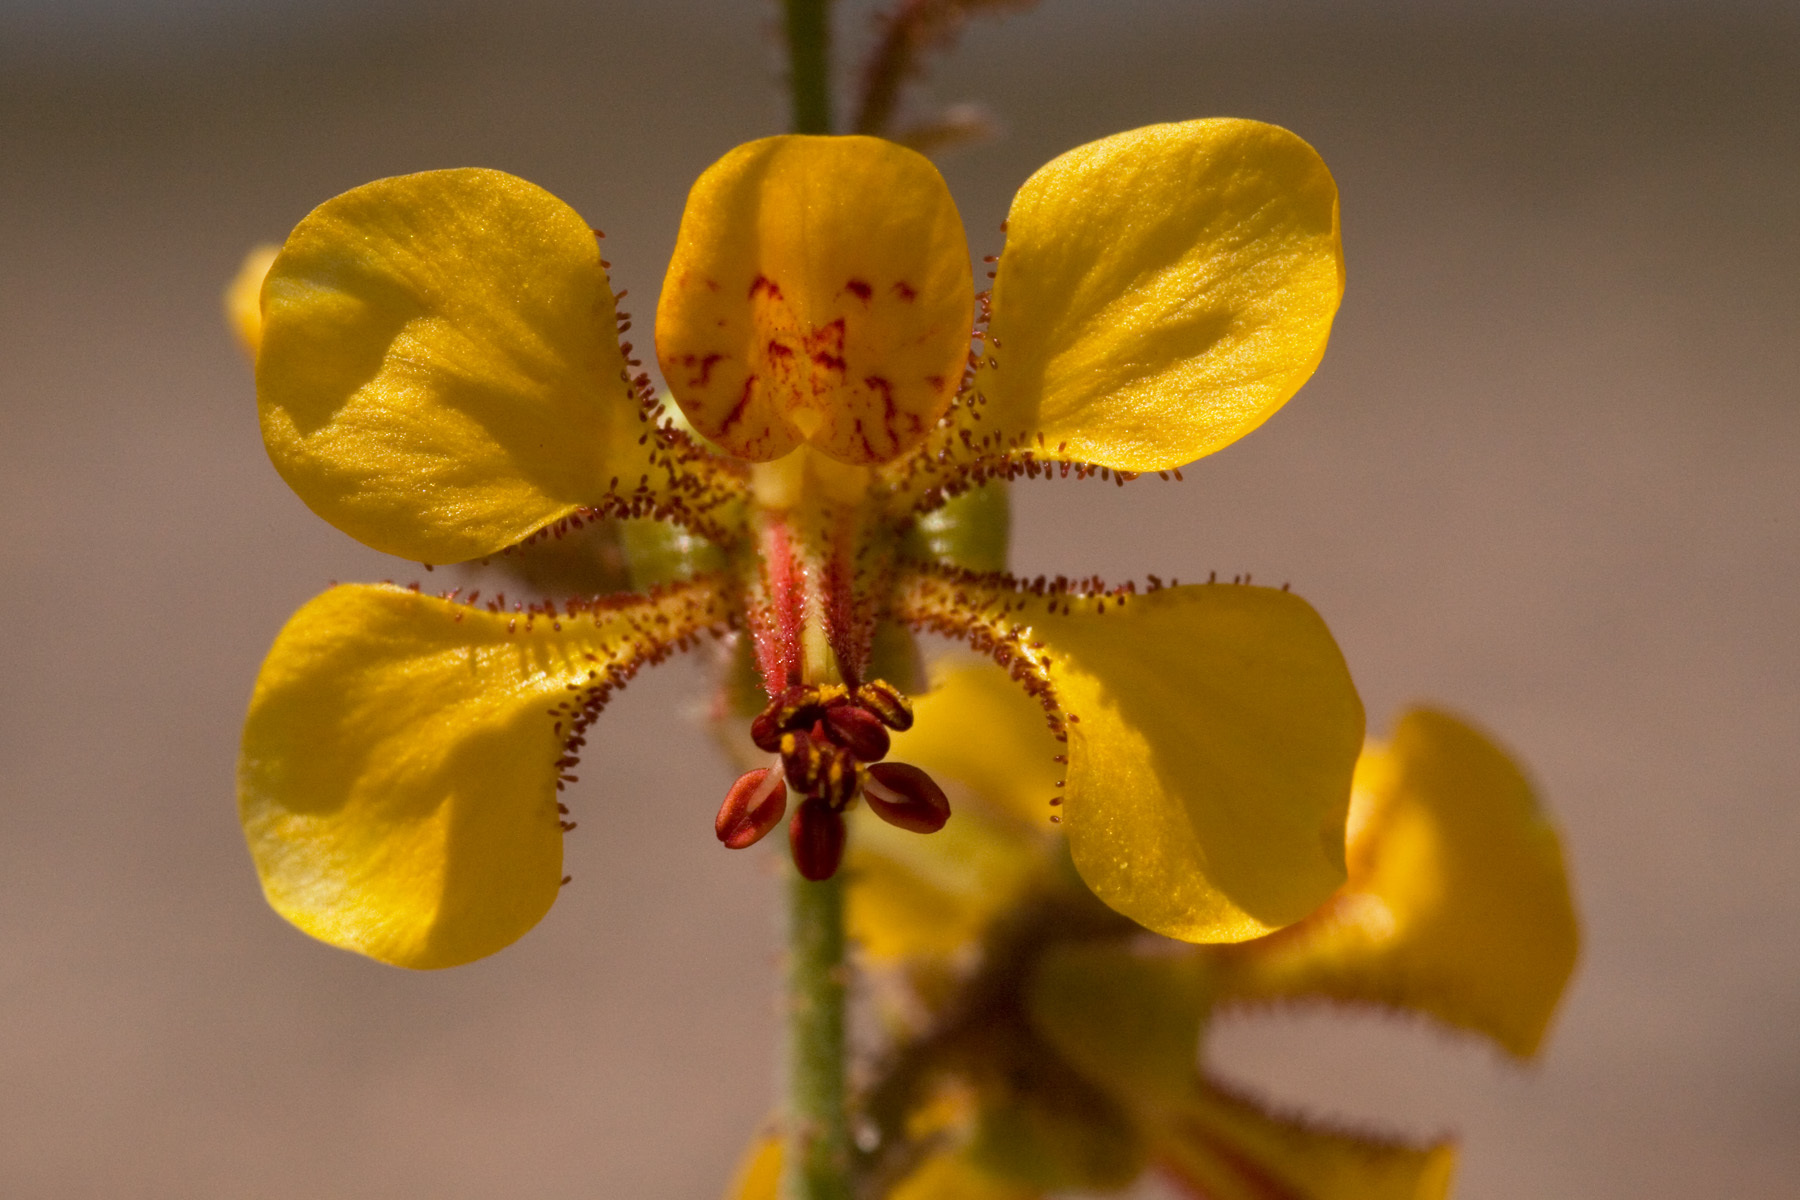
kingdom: Plantae
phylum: Tracheophyta
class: Magnoliopsida
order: Fabales
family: Fabaceae
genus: Hoffmannseggia
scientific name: Hoffmannseggia glauca
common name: Pignut
